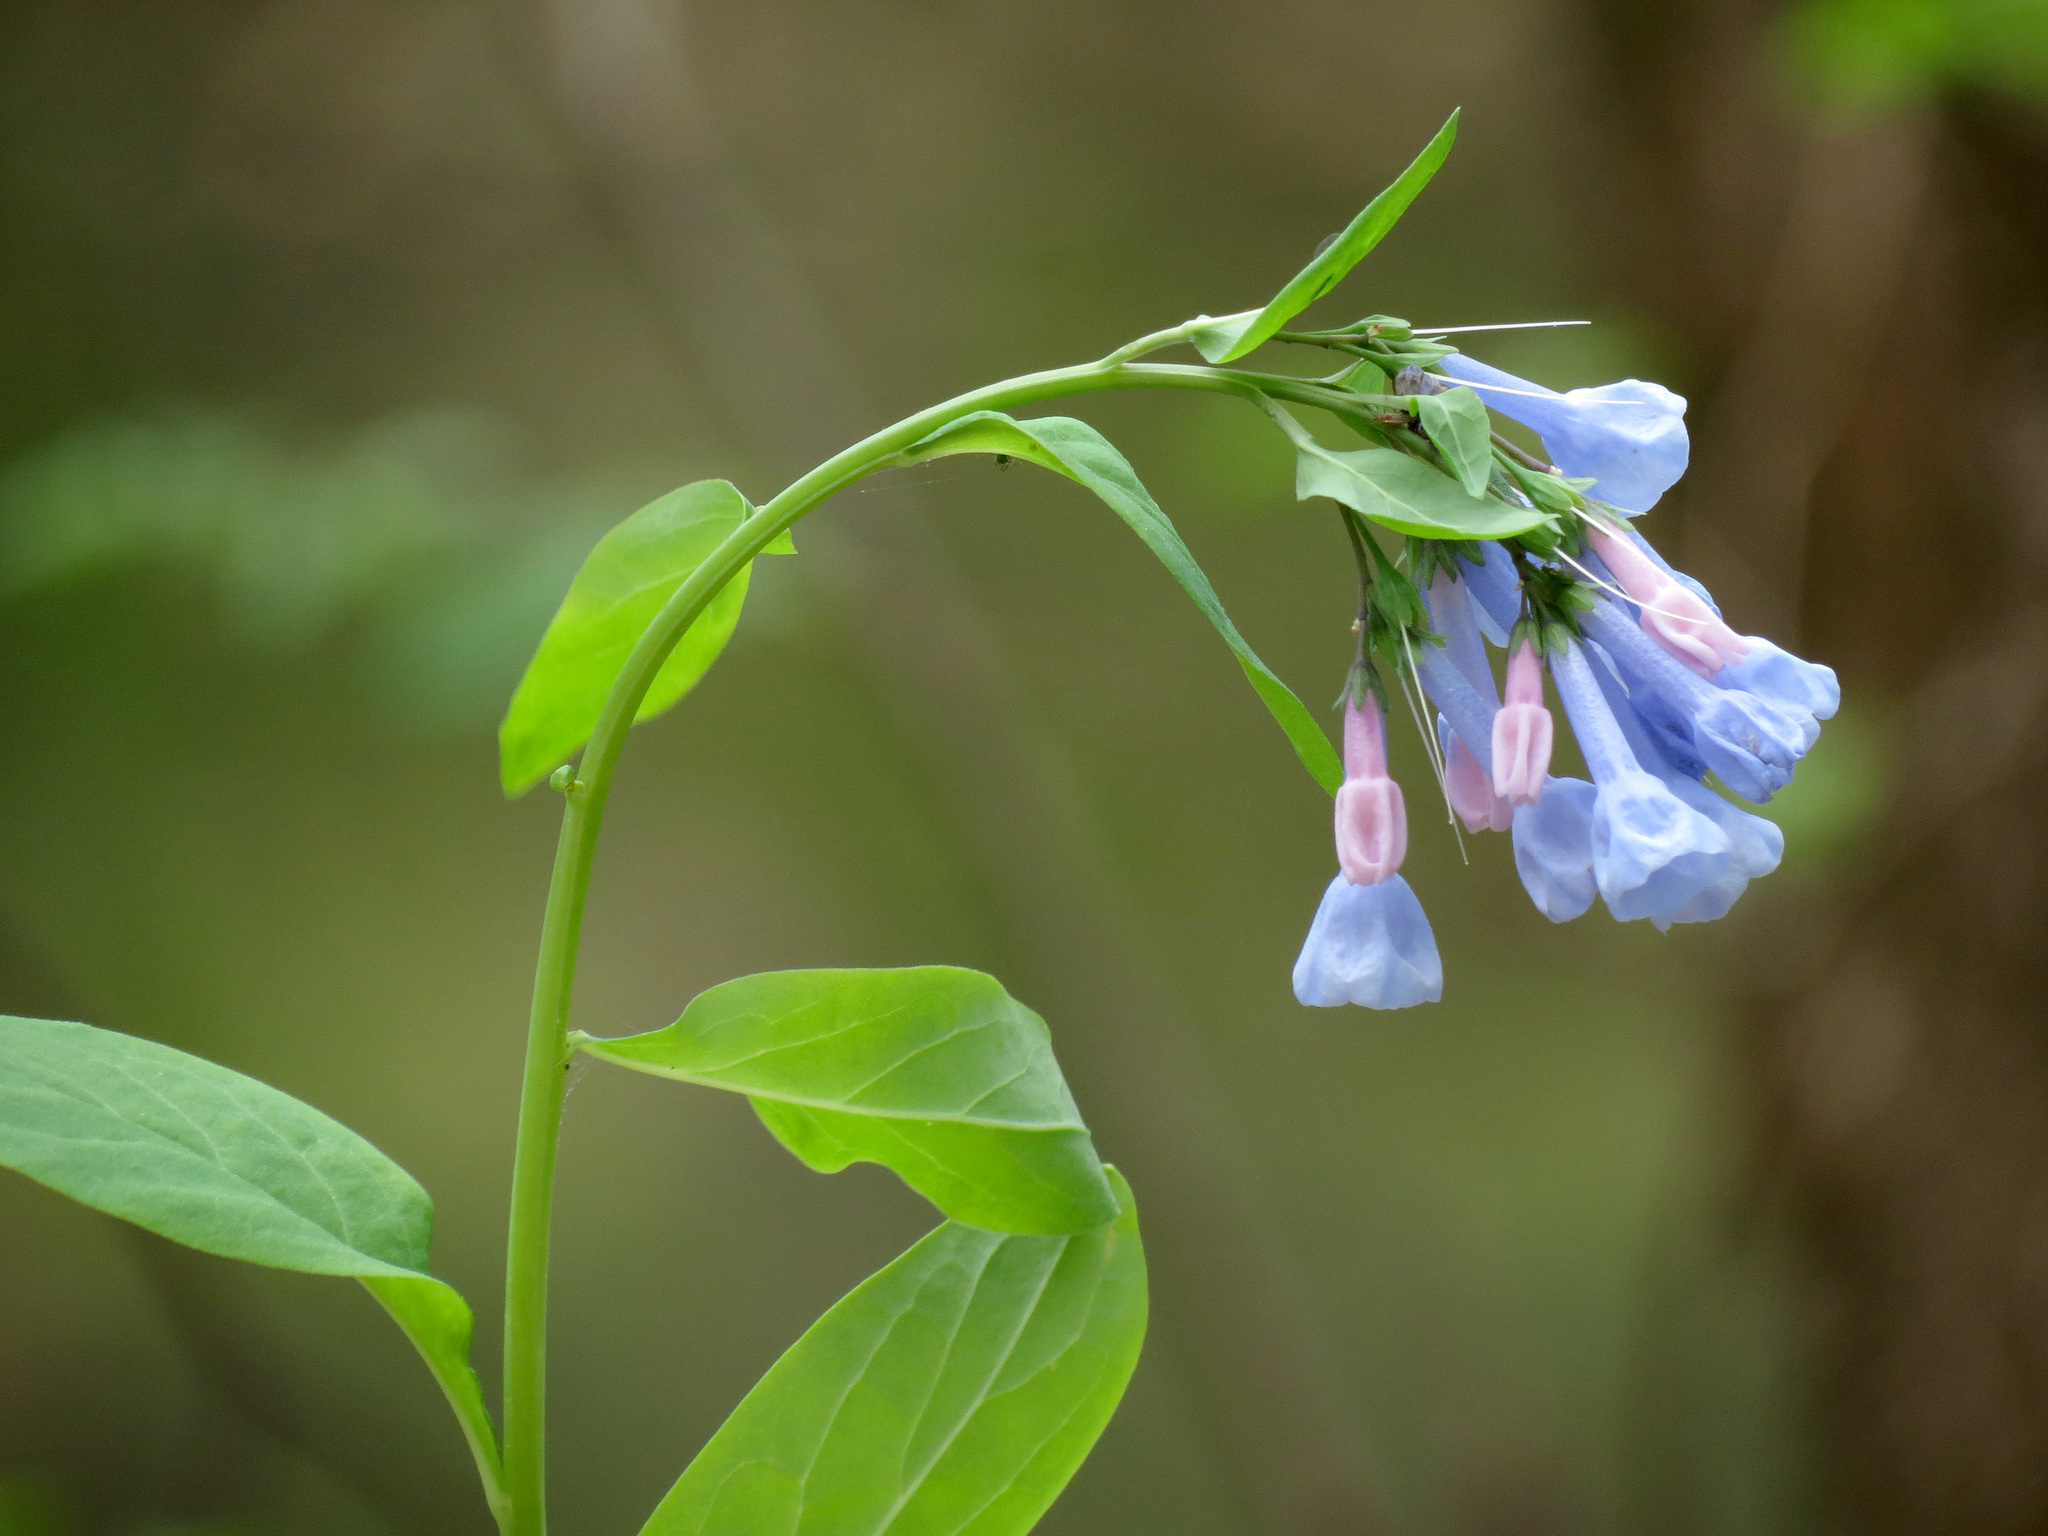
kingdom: Plantae
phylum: Tracheophyta
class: Magnoliopsida
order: Boraginales
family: Boraginaceae
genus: Mertensia
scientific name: Mertensia virginica
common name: Virginia bluebells
